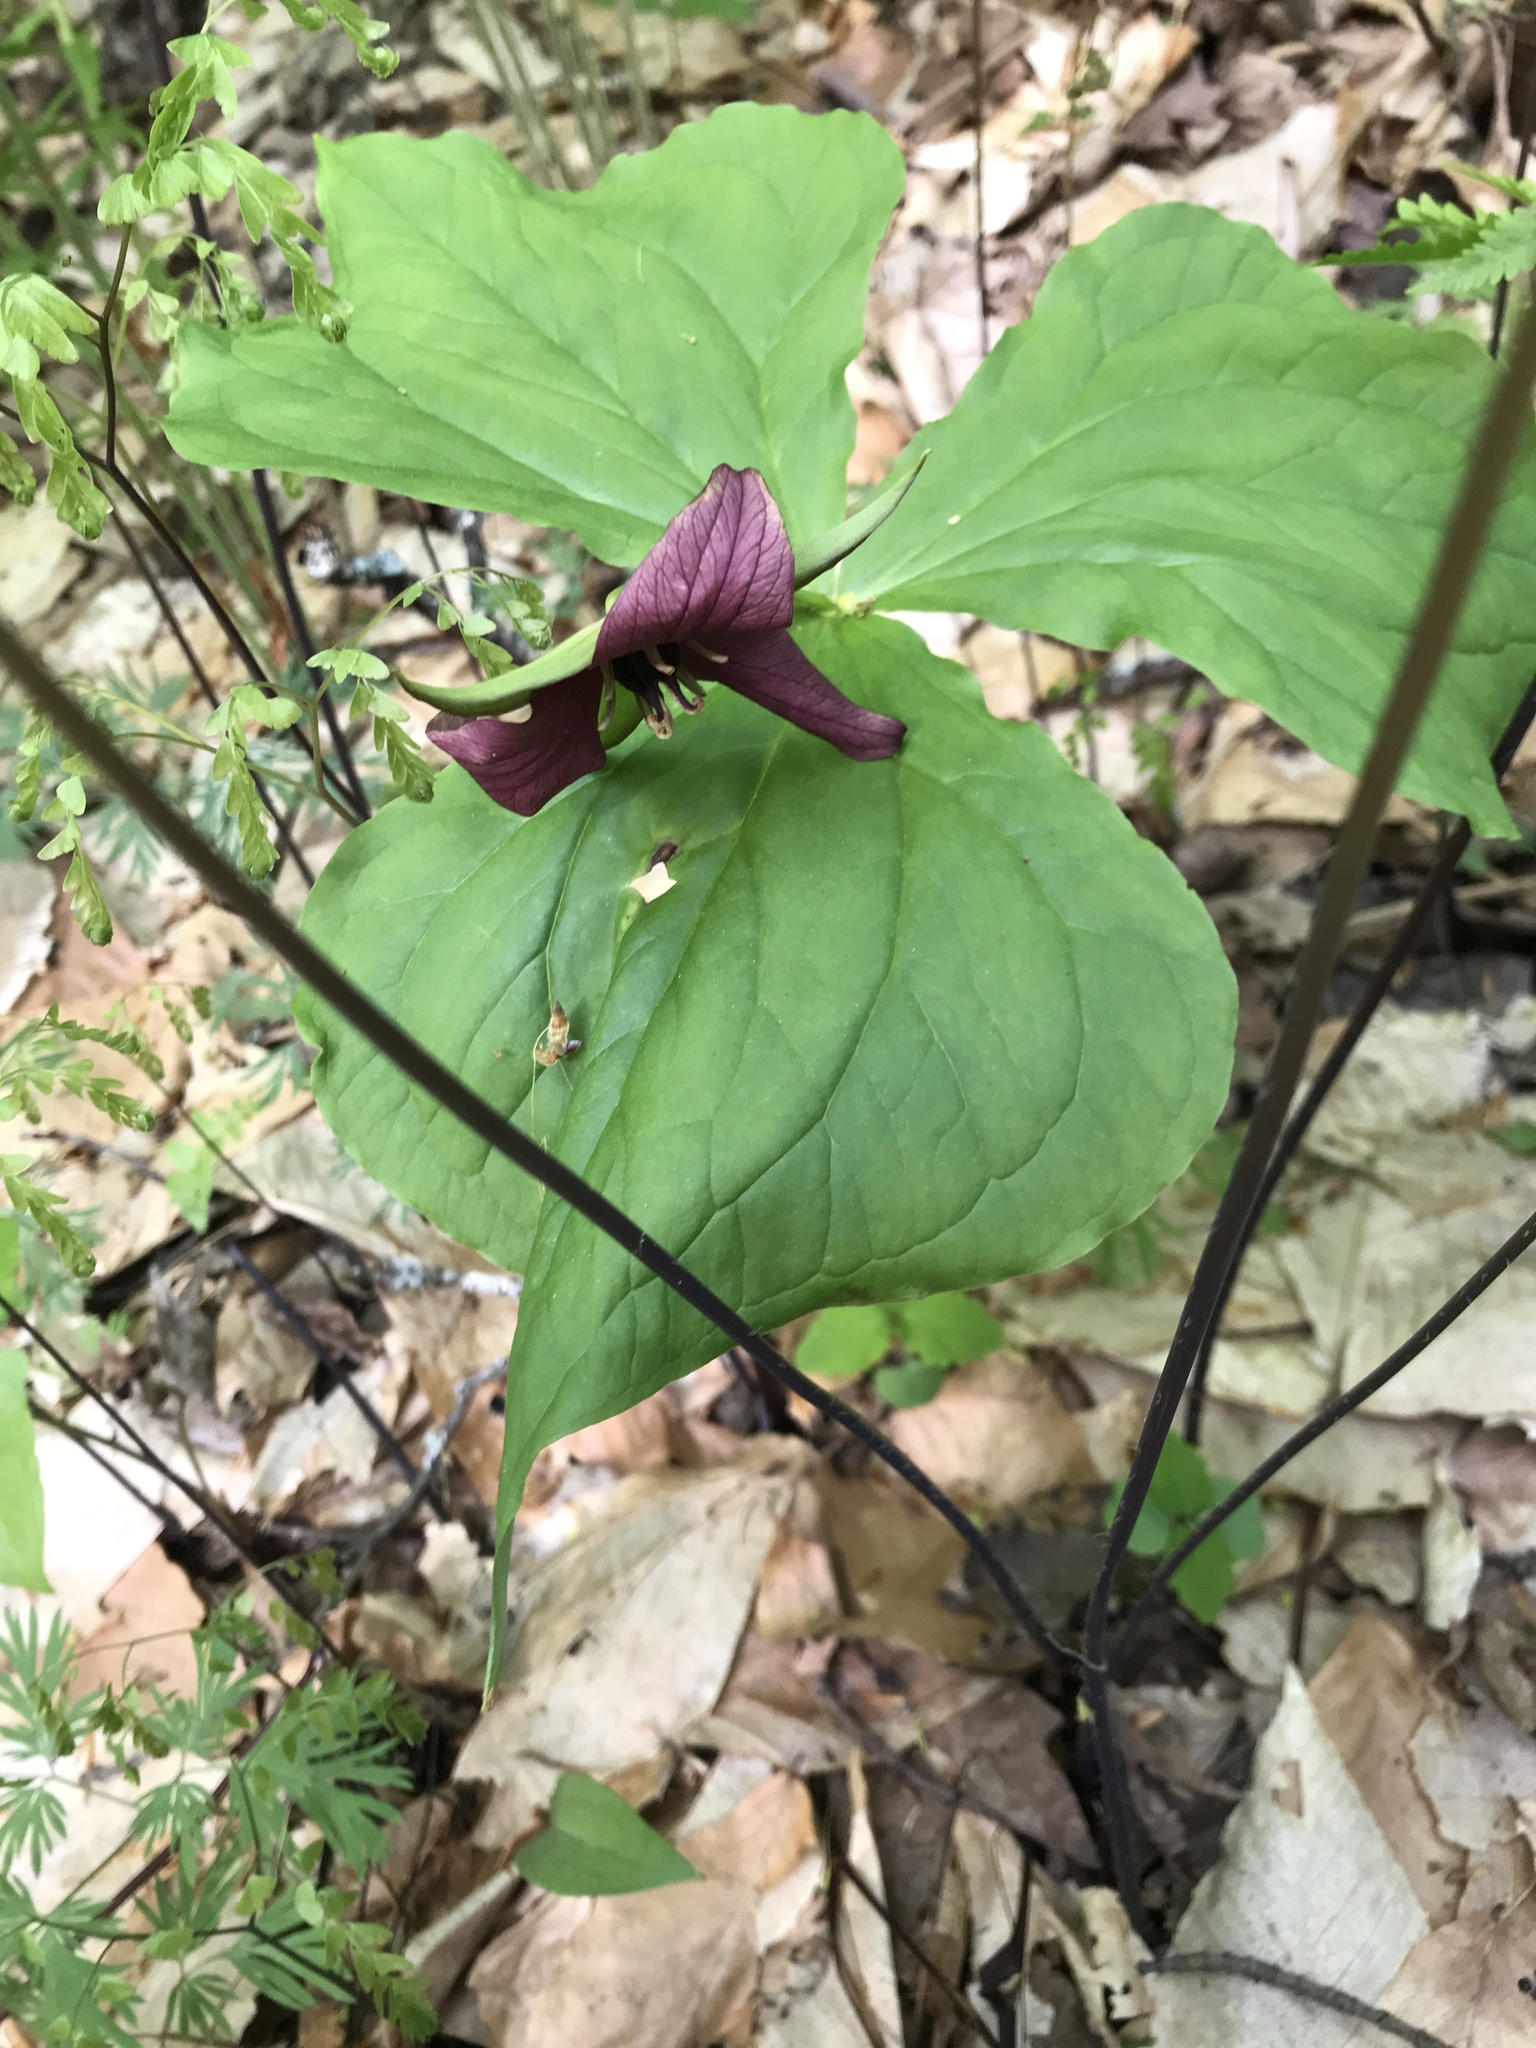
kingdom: Plantae
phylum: Tracheophyta
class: Liliopsida
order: Liliales
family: Melanthiaceae
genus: Trillium
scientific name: Trillium erectum
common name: Purple trillium
